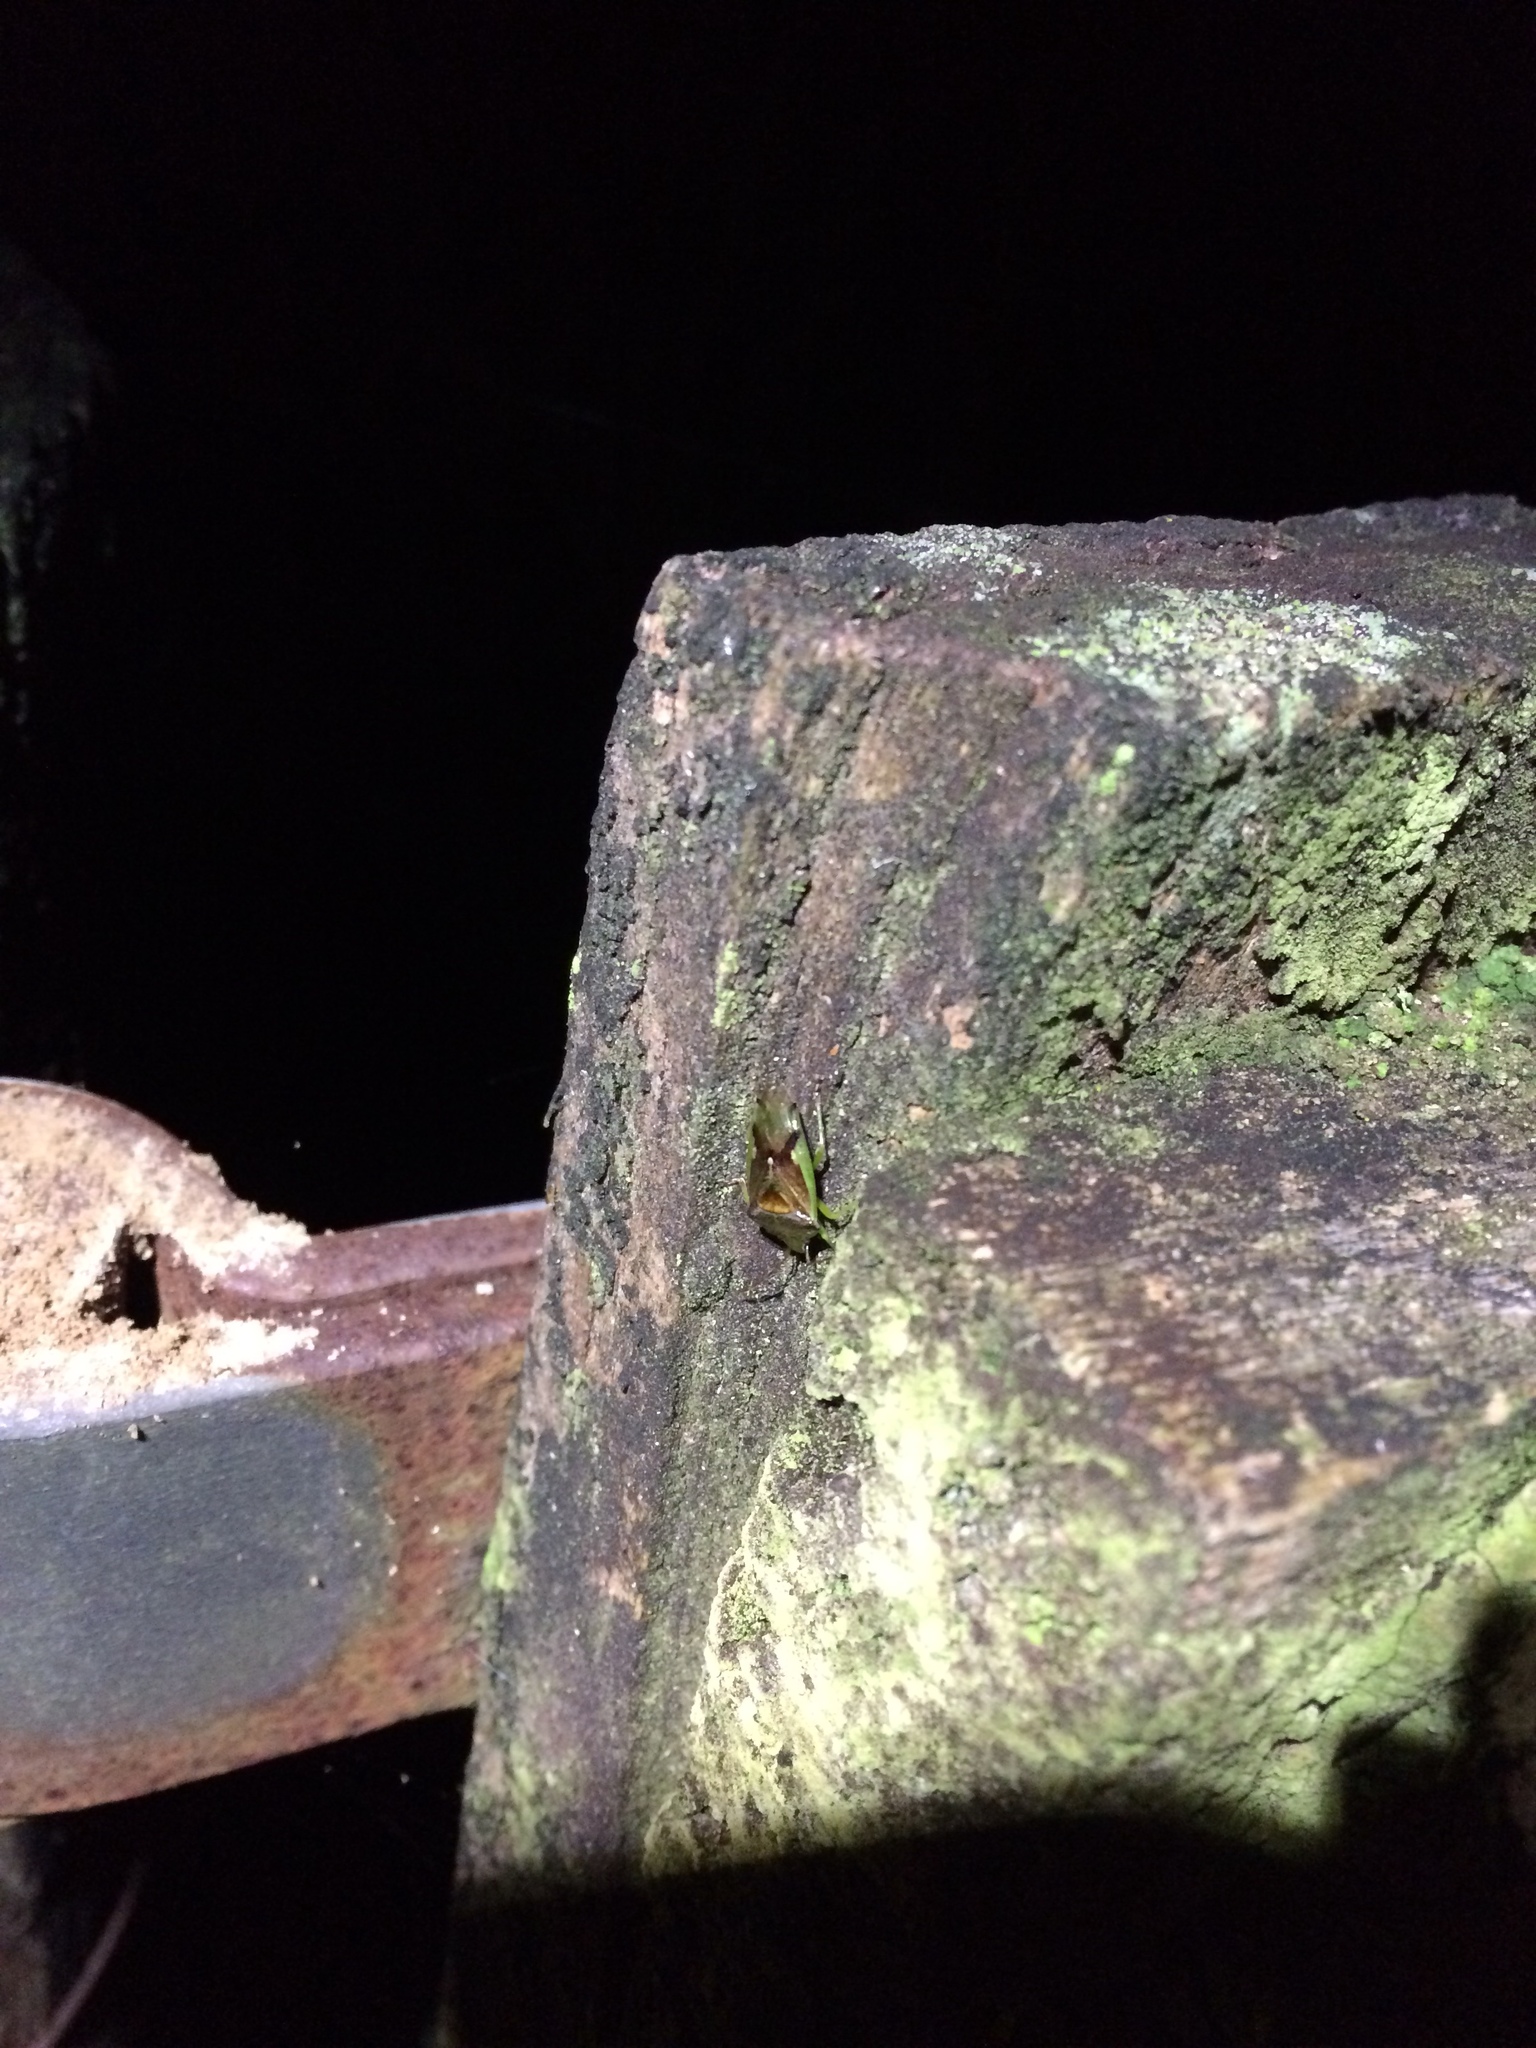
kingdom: Animalia
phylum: Arthropoda
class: Insecta
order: Hemiptera
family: Acanthosomatidae
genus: Oncacontias
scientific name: Oncacontias vittatus
